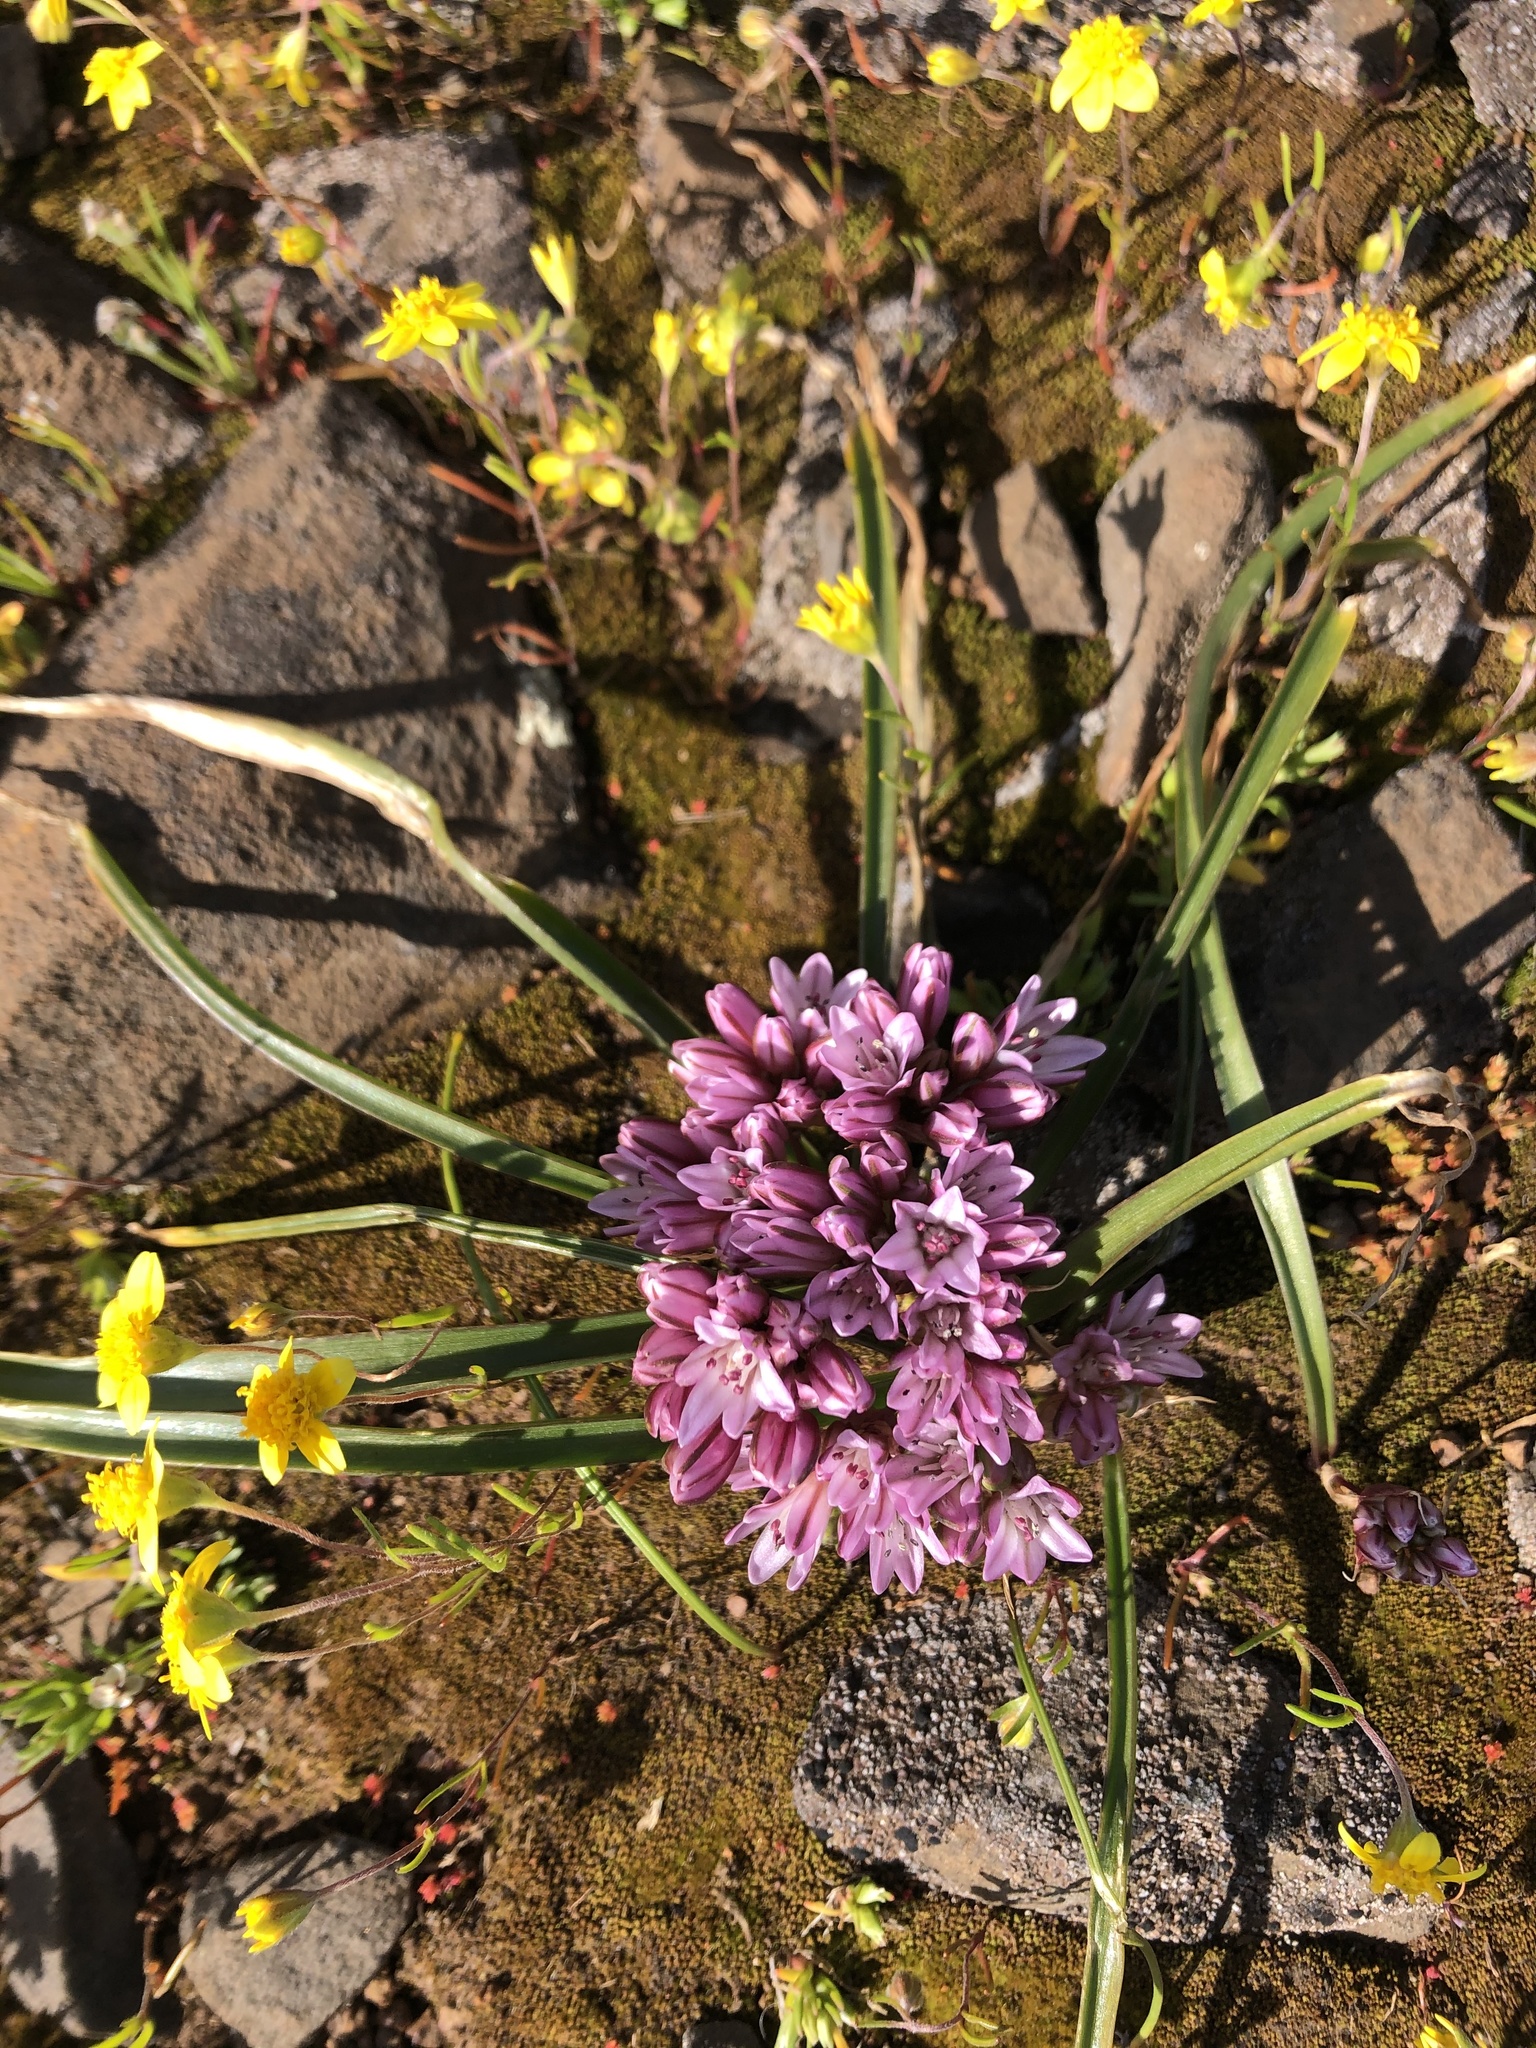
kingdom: Plantae
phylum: Tracheophyta
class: Liliopsida
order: Asparagales
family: Amaryllidaceae
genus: Allium
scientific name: Allium cratericola
